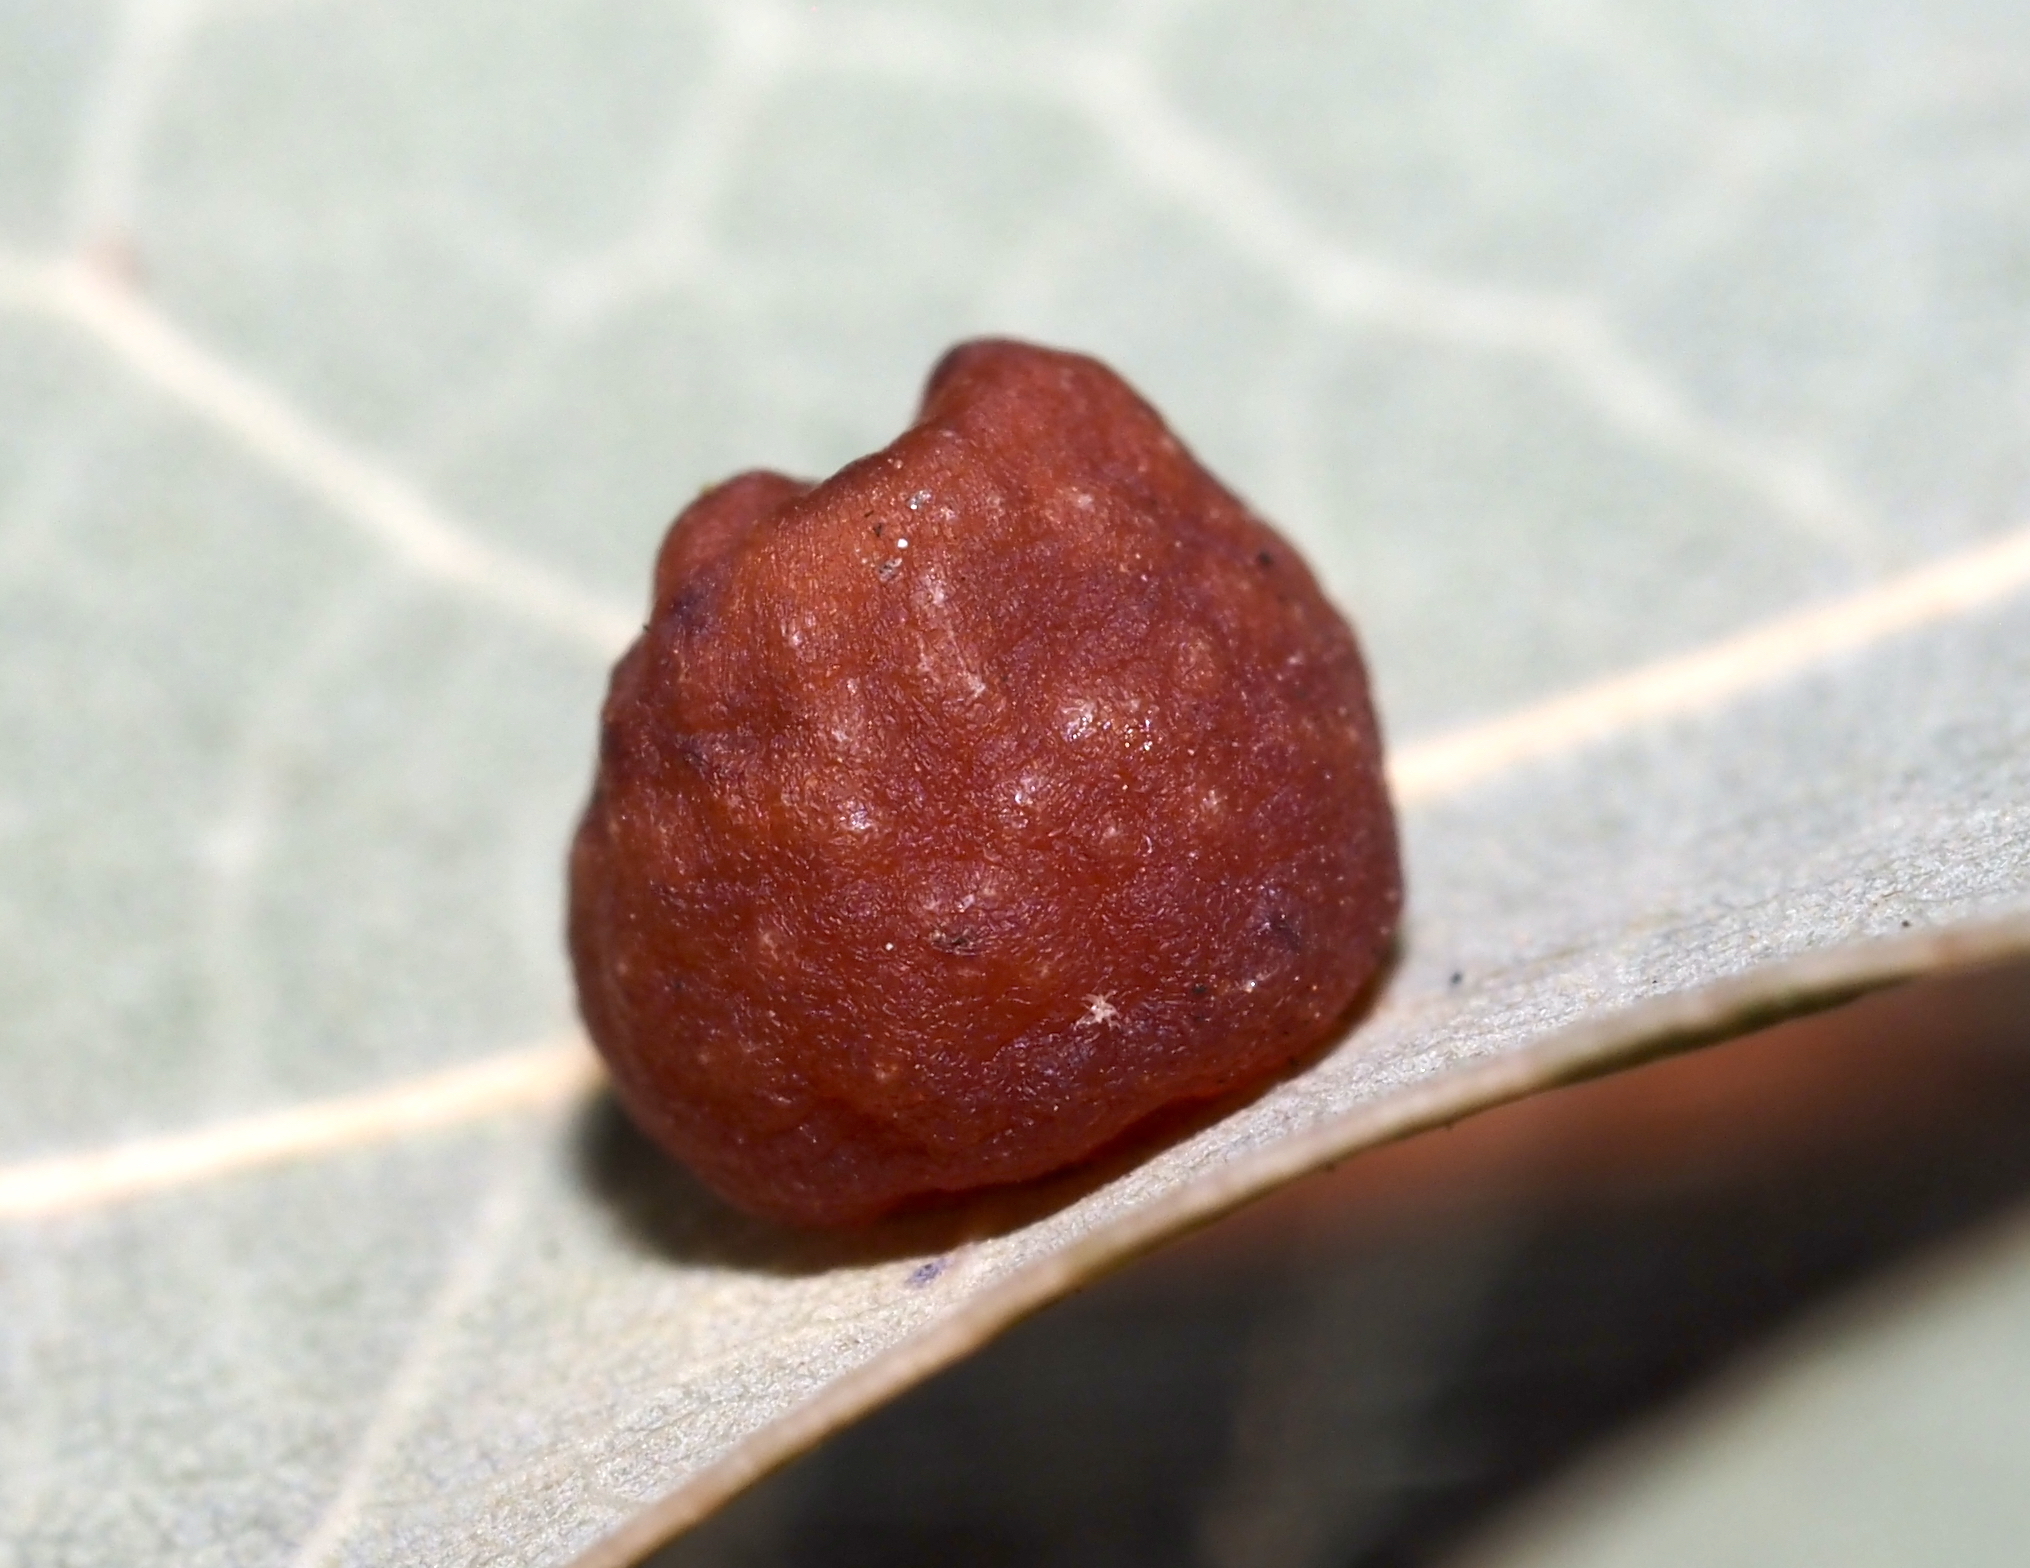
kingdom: Animalia
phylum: Arthropoda
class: Insecta
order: Hymenoptera
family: Cynipidae
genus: Andricus
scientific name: Andricus
